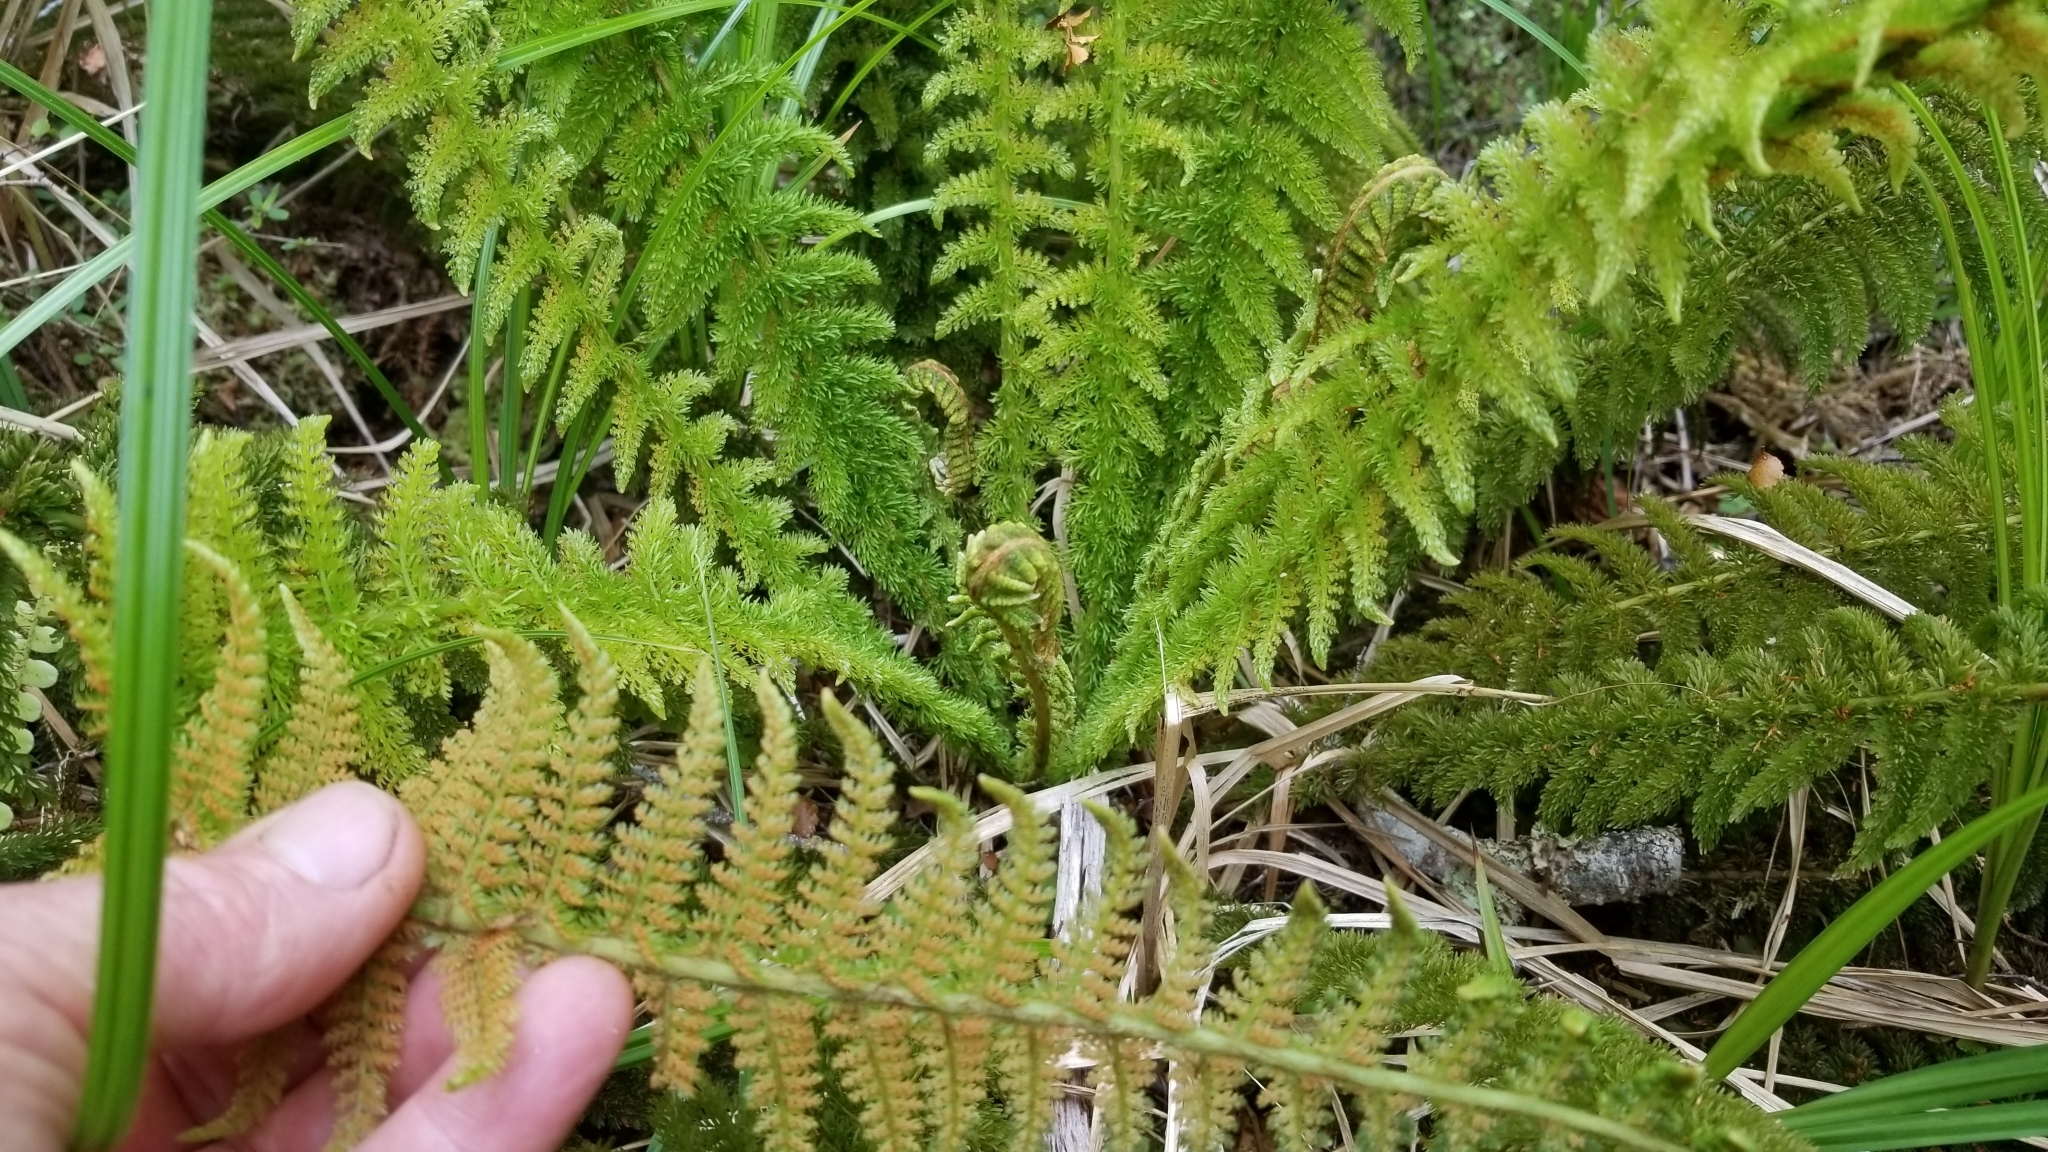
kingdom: Plantae
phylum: Tracheophyta
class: Polypodiopsida
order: Osmundales
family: Osmundaceae
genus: Leptopteris
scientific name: Leptopteris superba
